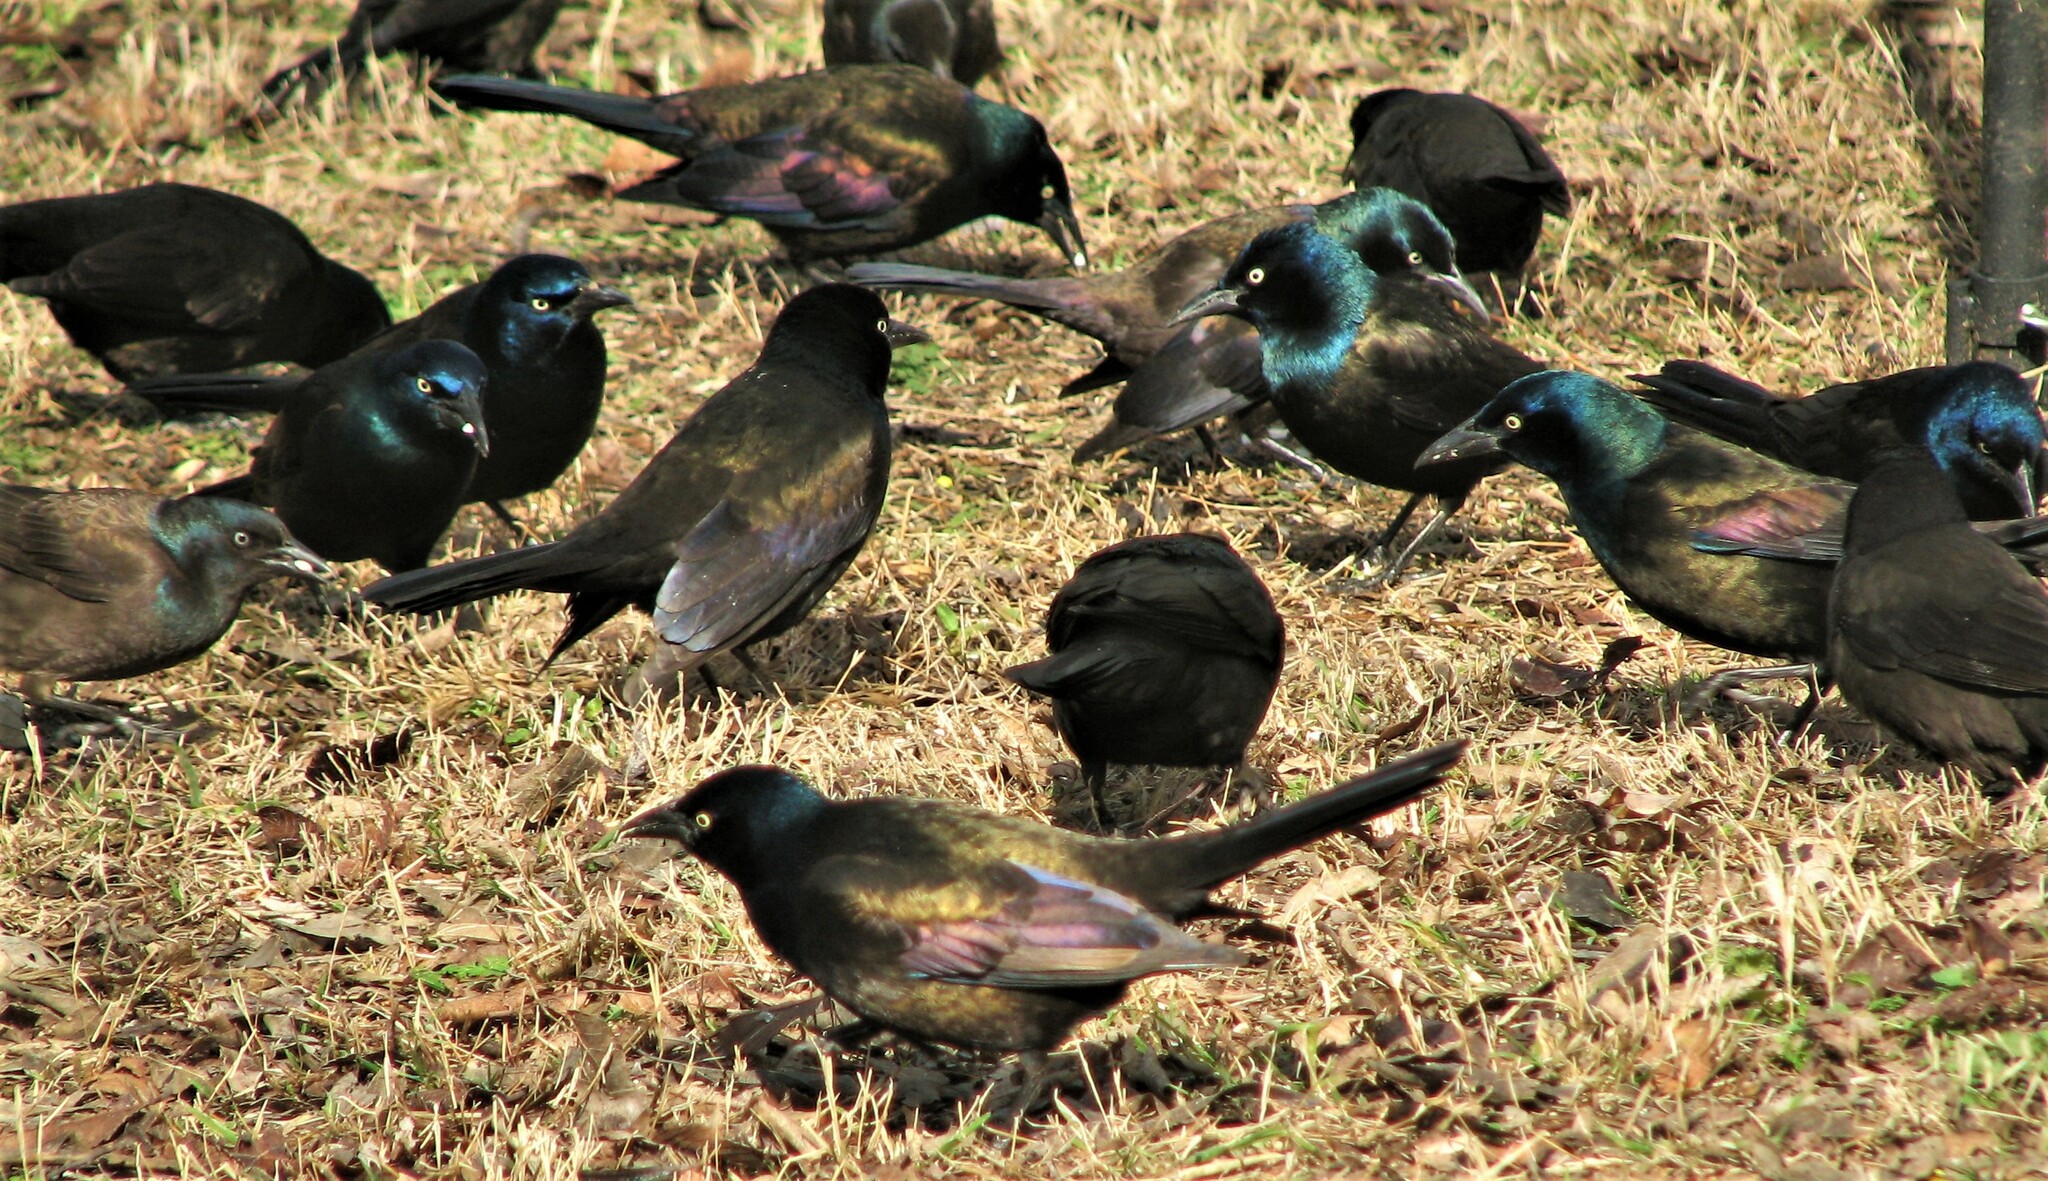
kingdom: Animalia
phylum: Chordata
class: Aves
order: Passeriformes
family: Icteridae
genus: Quiscalus
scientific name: Quiscalus quiscula
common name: Common grackle
